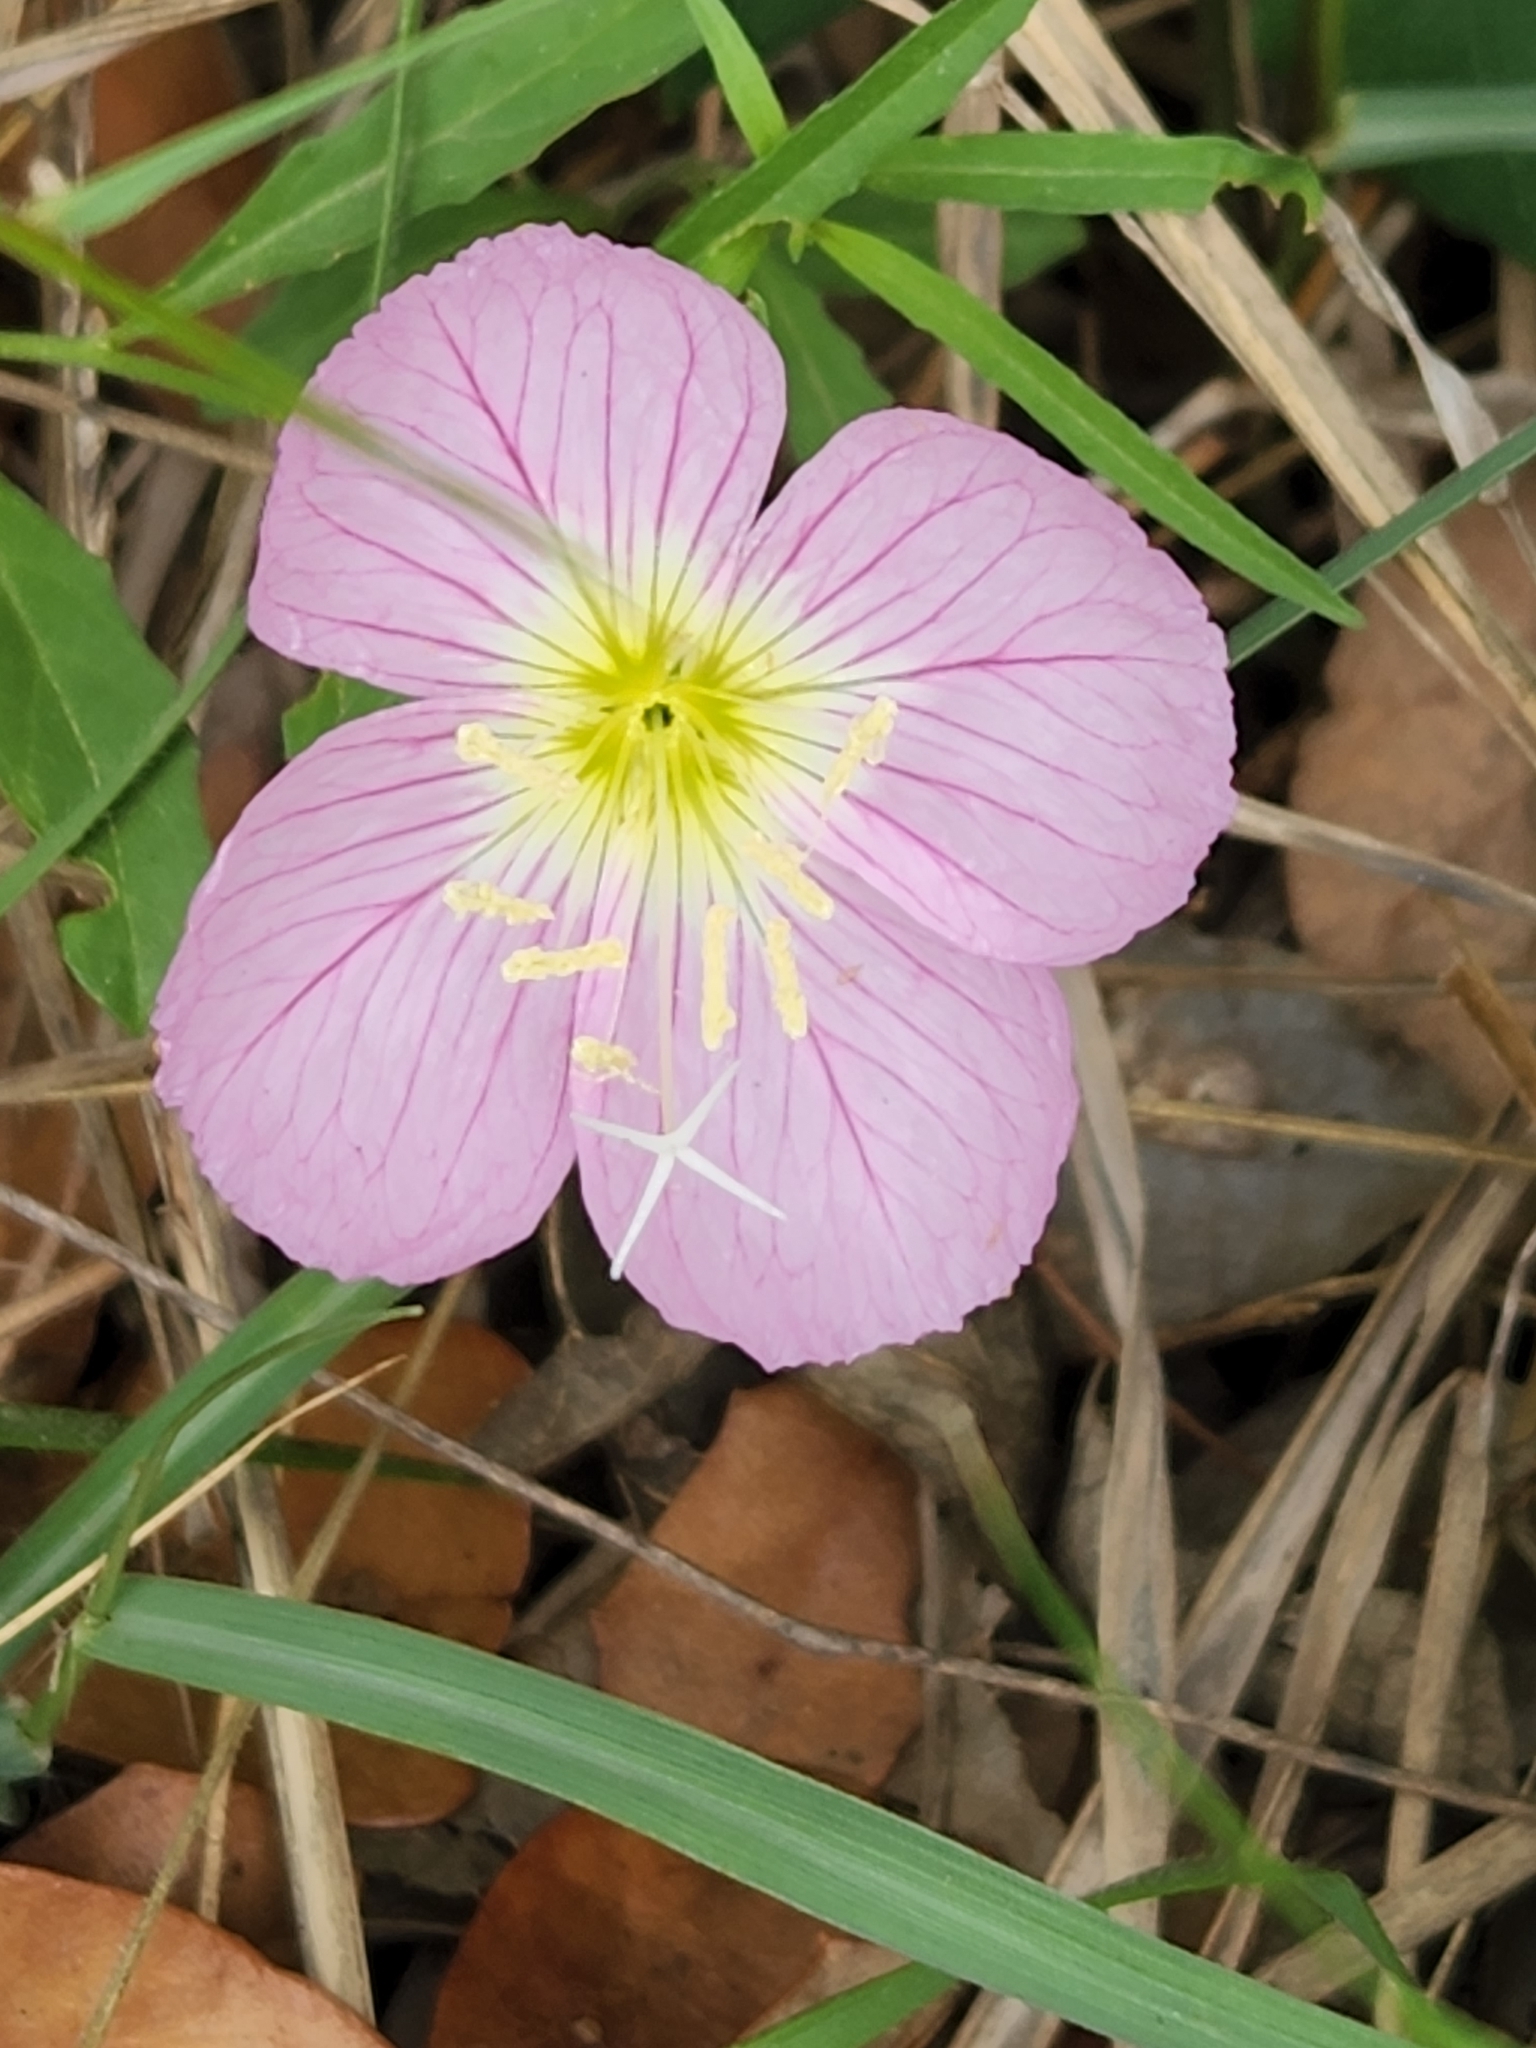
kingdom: Plantae
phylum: Tracheophyta
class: Magnoliopsida
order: Myrtales
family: Onagraceae
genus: Oenothera
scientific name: Oenothera speciosa
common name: White evening-primrose
